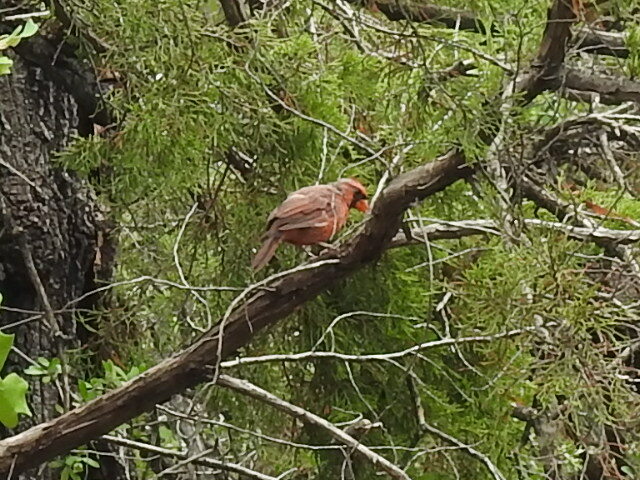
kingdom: Animalia
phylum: Chordata
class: Aves
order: Passeriformes
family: Cardinalidae
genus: Cardinalis
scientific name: Cardinalis cardinalis
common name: Northern cardinal
